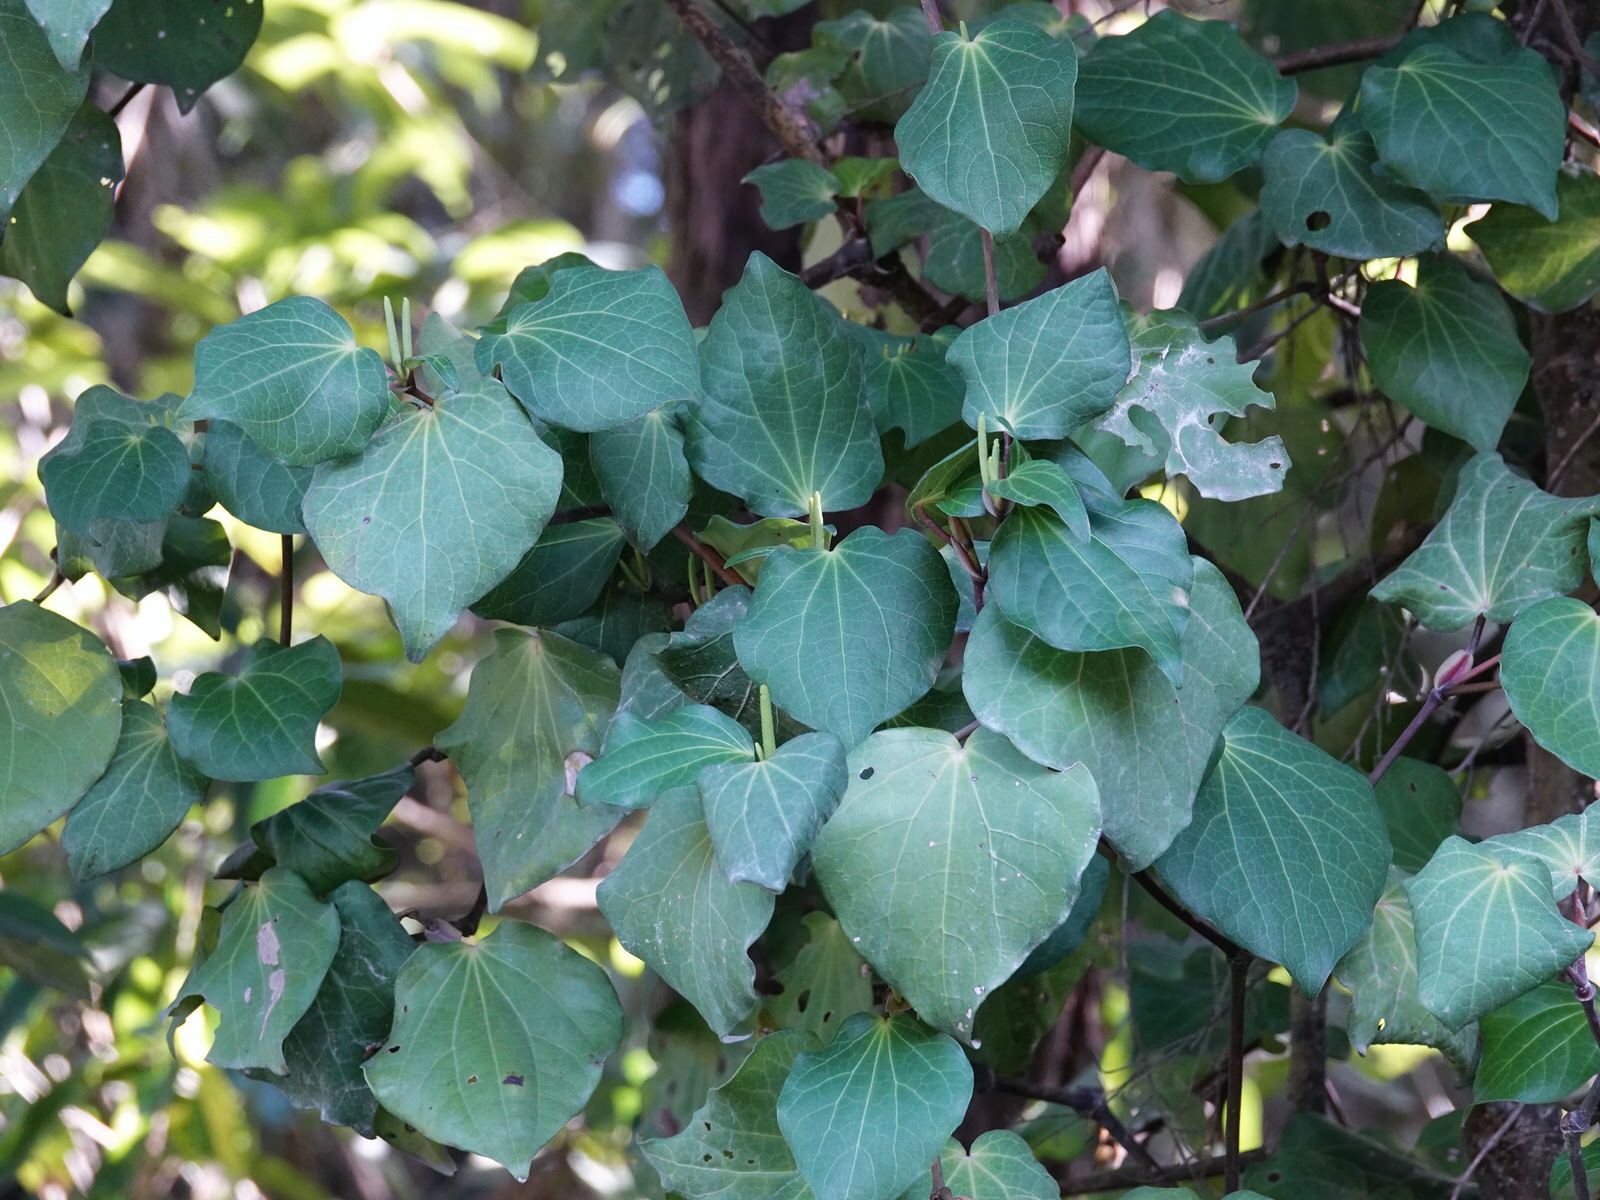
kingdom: Plantae
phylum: Tracheophyta
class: Magnoliopsida
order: Piperales
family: Piperaceae
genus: Macropiper
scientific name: Macropiper excelsum
